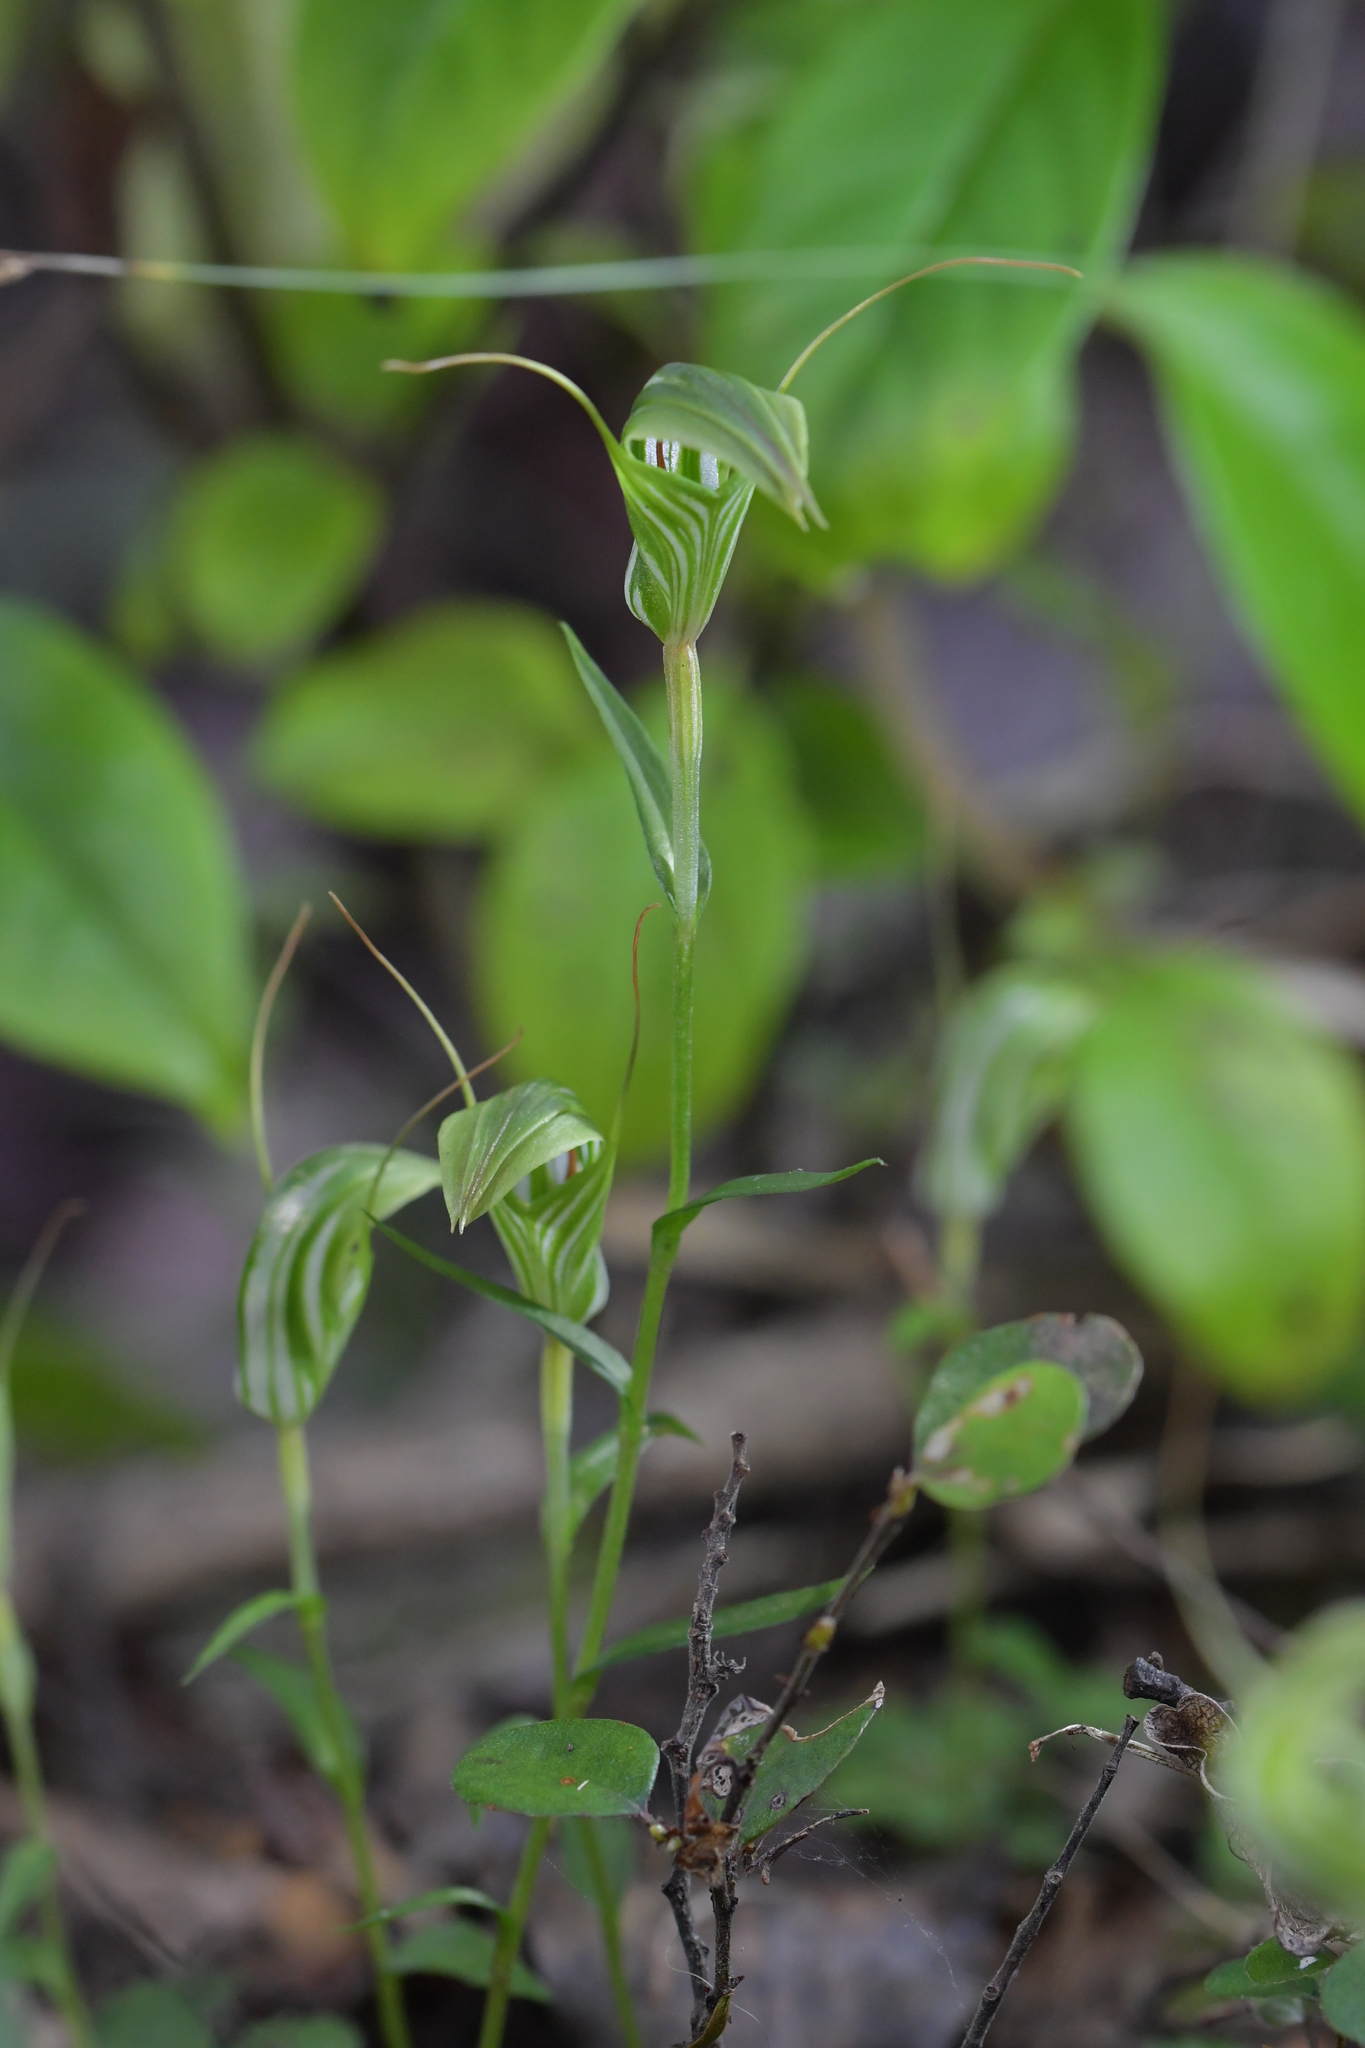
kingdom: Plantae
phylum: Tracheophyta
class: Liliopsida
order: Asparagales
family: Orchidaceae
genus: Pterostylis
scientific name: Pterostylis alobula
